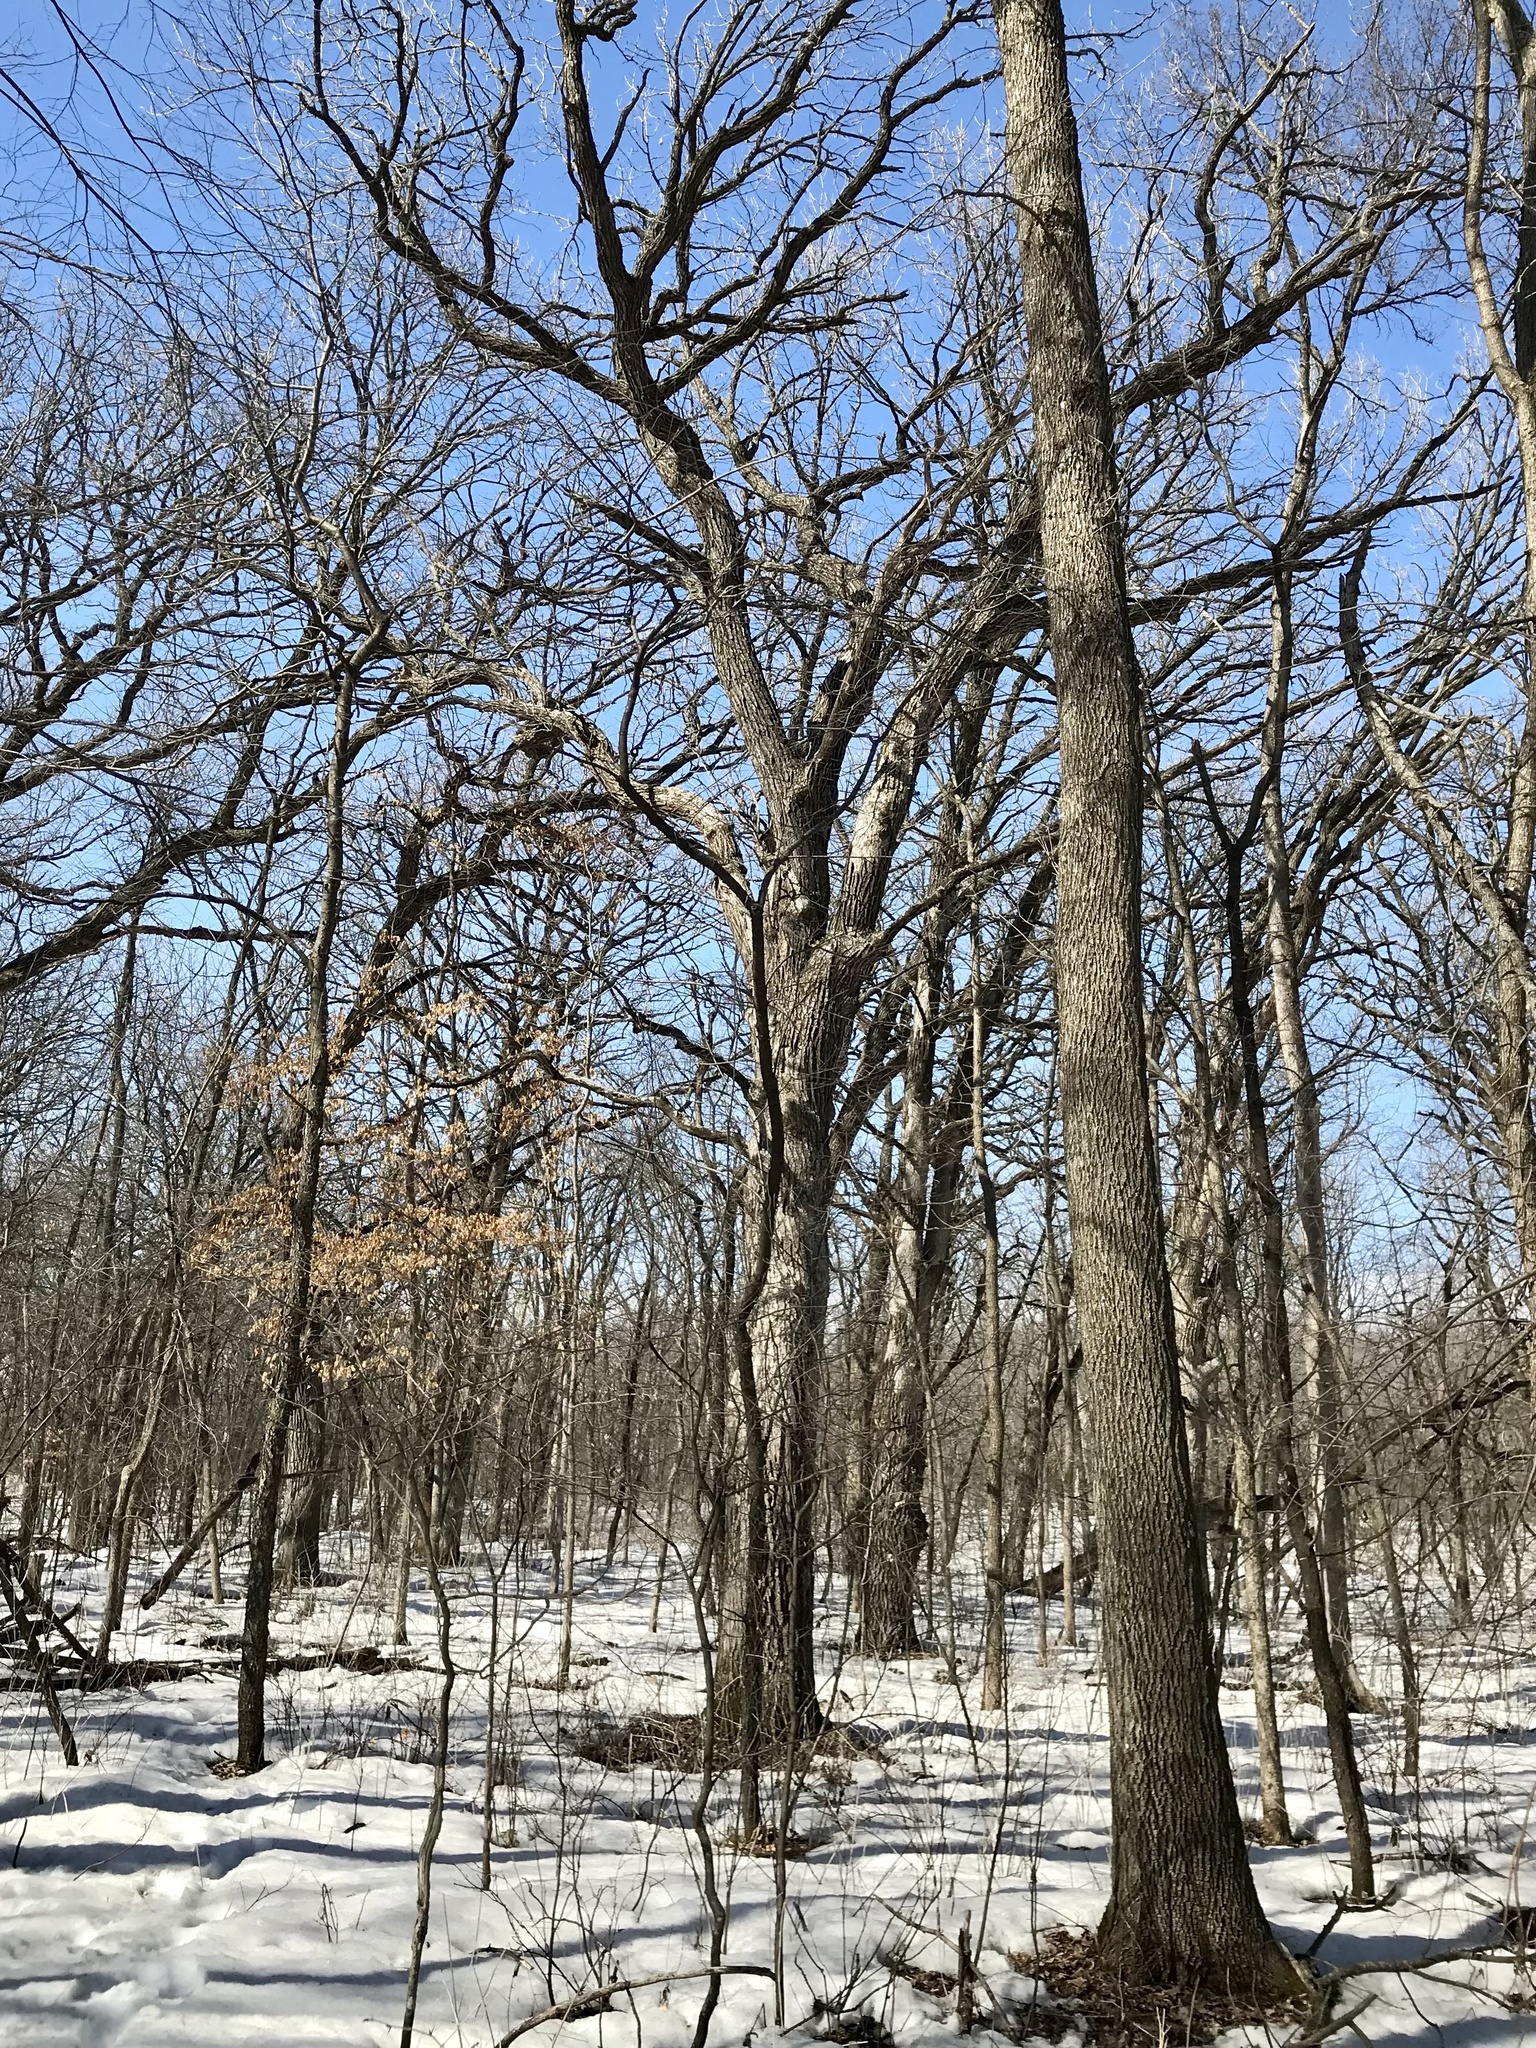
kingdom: Plantae
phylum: Tracheophyta
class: Magnoliopsida
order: Fagales
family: Fagaceae
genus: Quercus
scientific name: Quercus macrocarpa
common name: Bur oak
